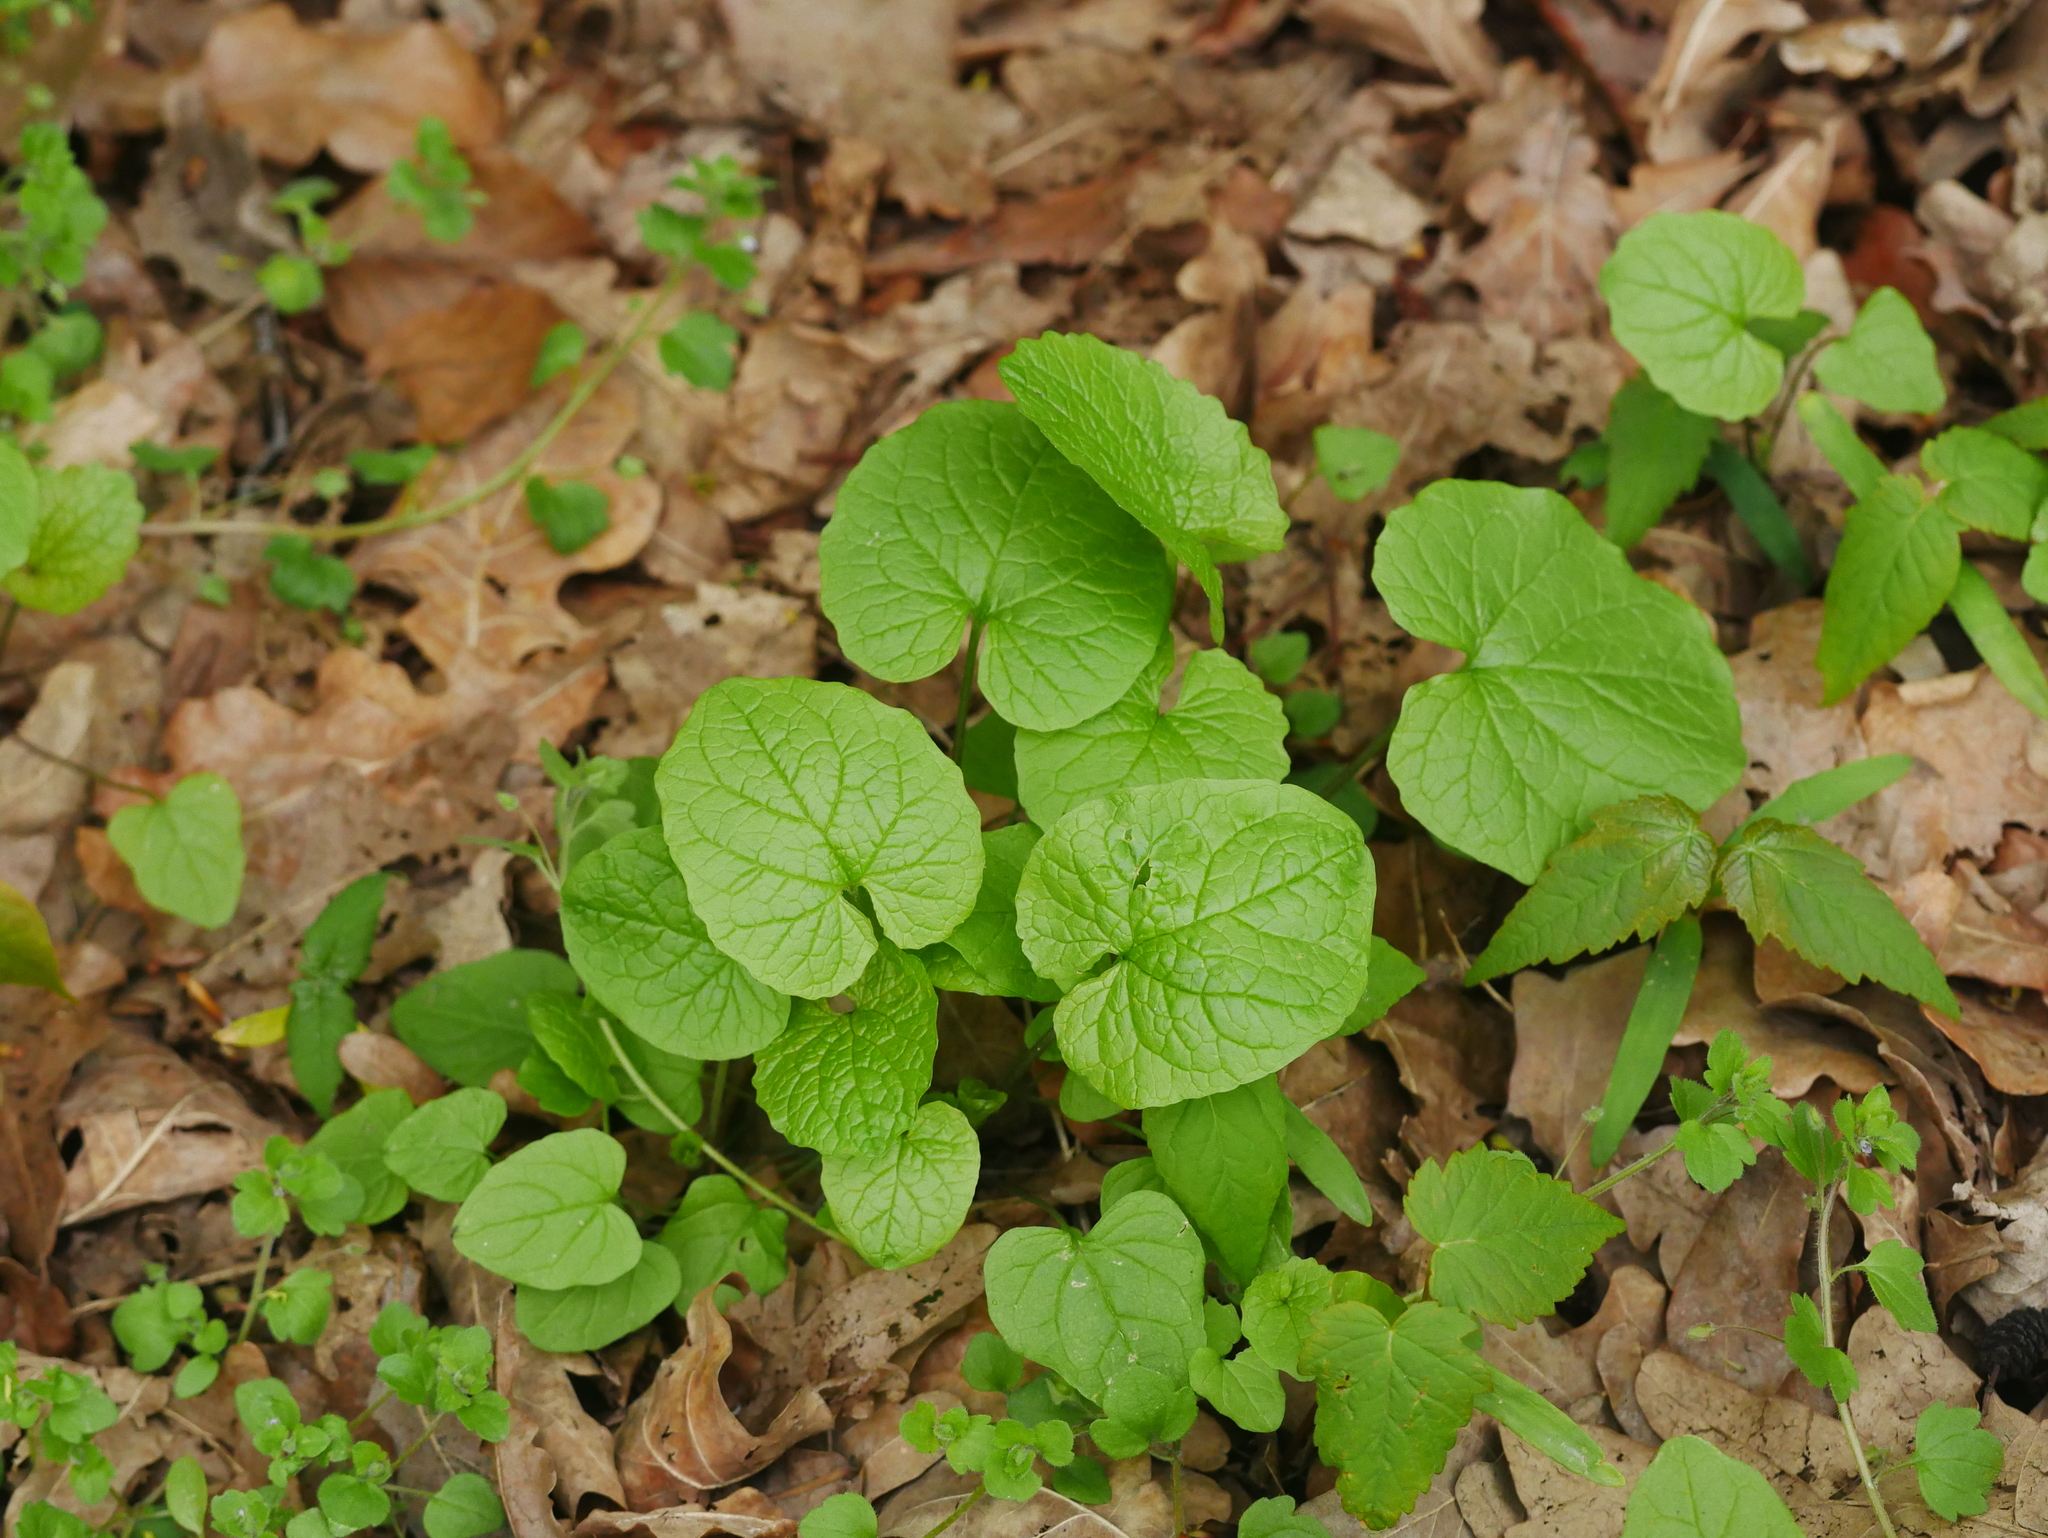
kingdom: Plantae
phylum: Tracheophyta
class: Magnoliopsida
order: Brassicales
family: Brassicaceae
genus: Alliaria
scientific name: Alliaria petiolata
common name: Garlic mustard
